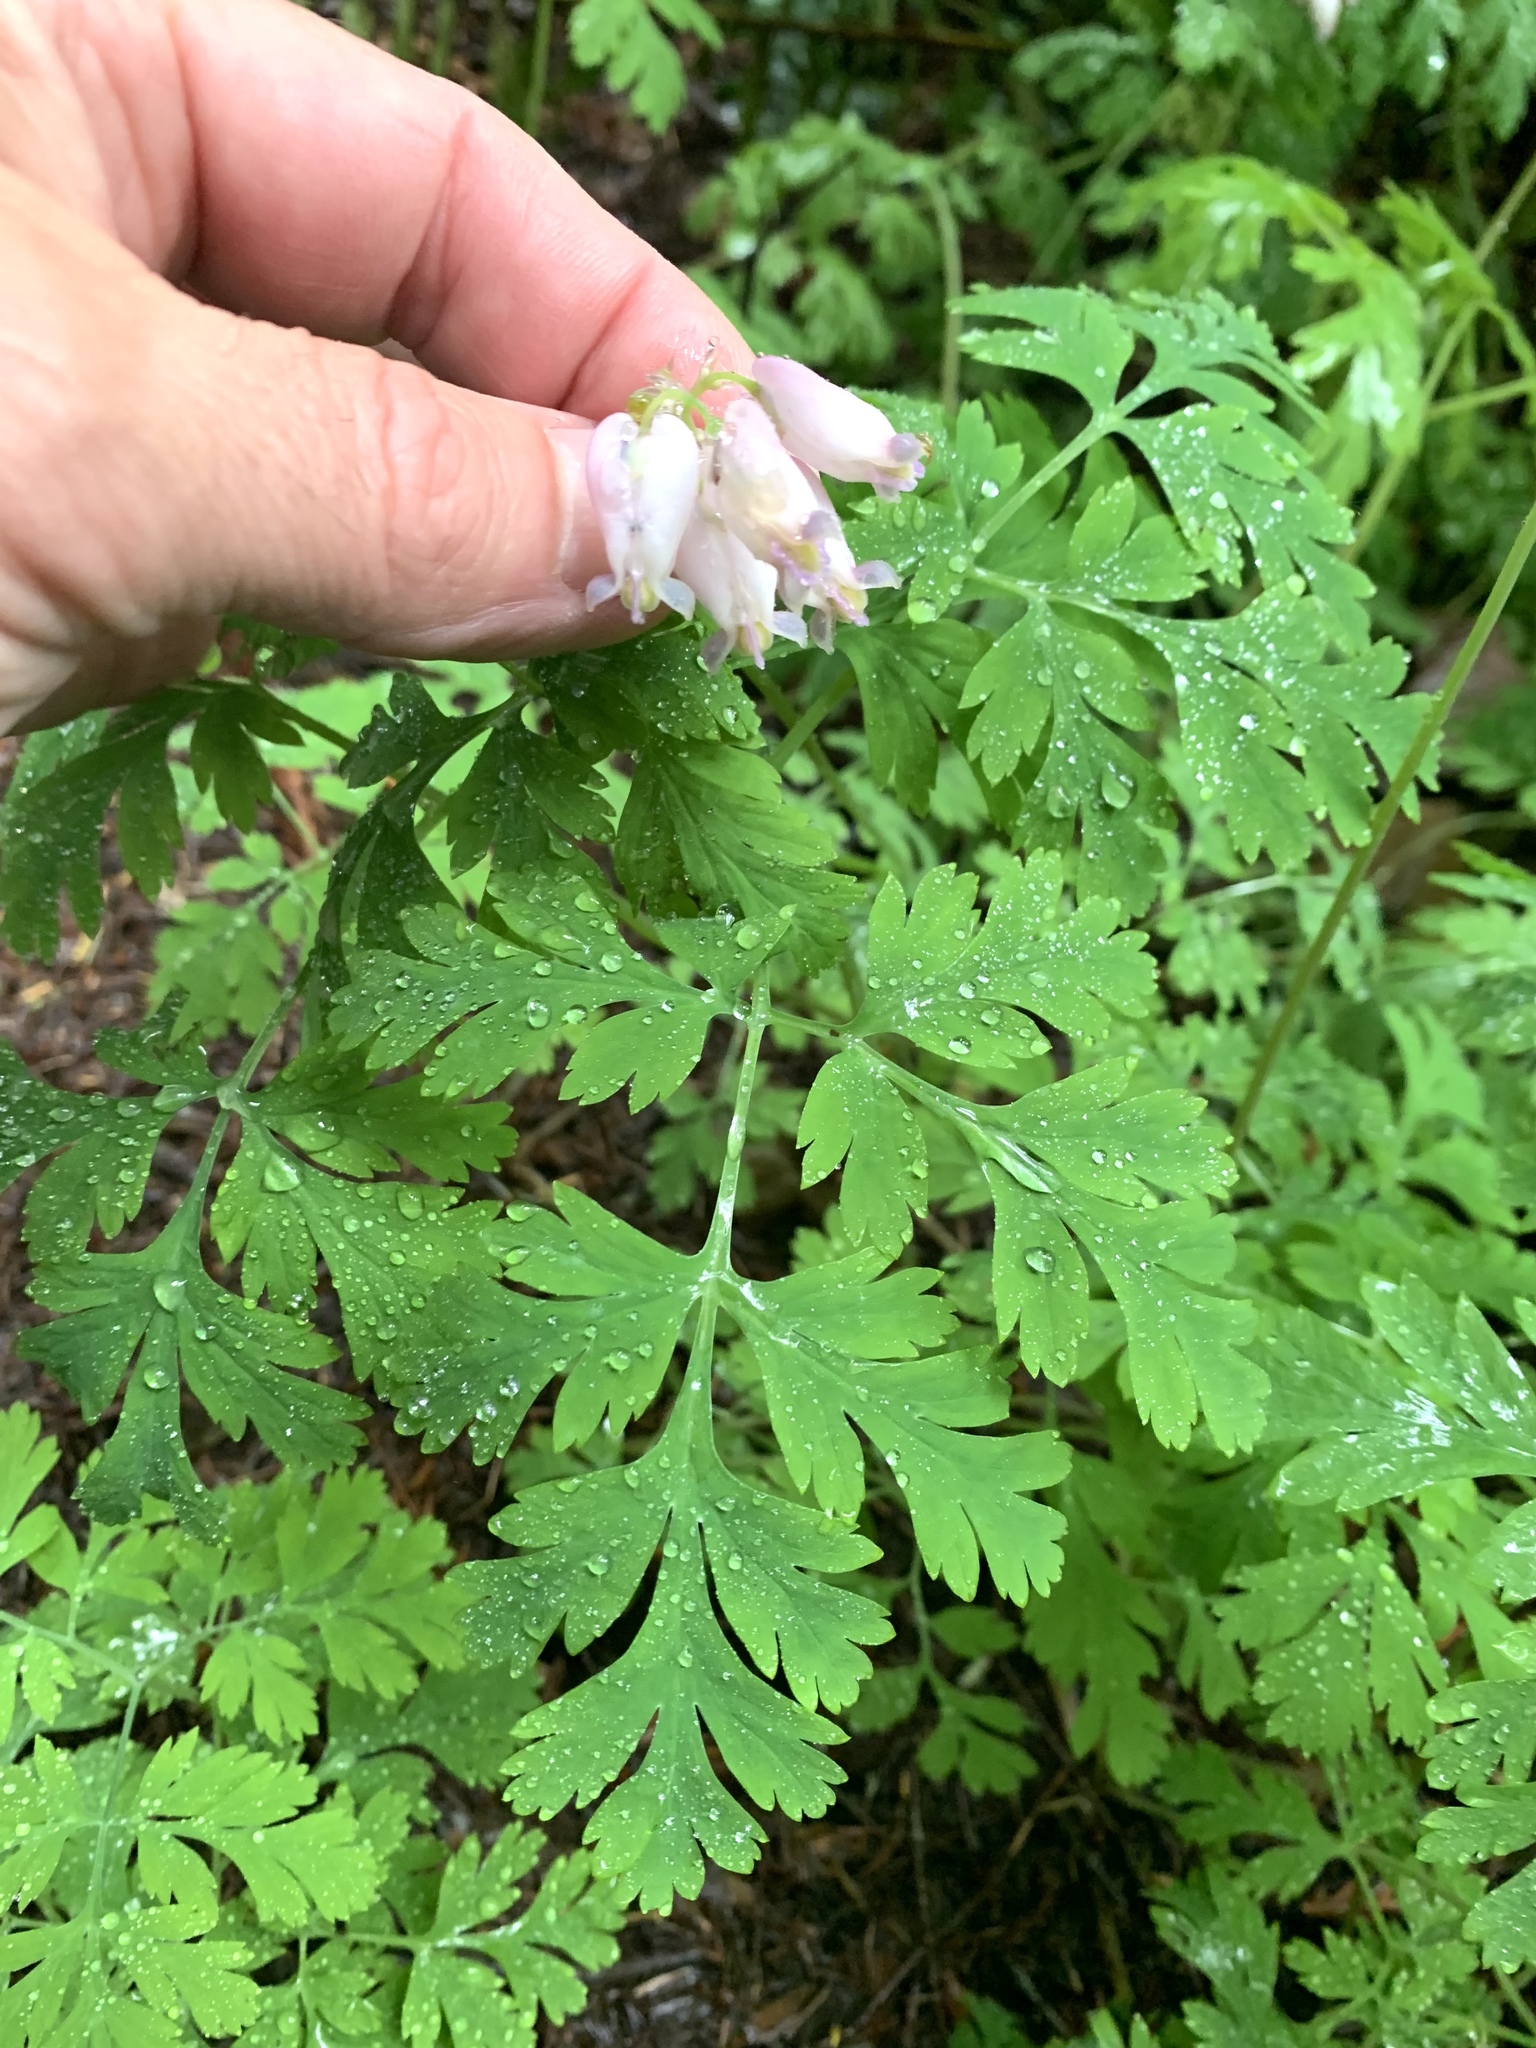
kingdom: Plantae
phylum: Tracheophyta
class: Magnoliopsida
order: Ranunculales
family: Papaveraceae
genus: Dicentra
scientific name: Dicentra formosa
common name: Bleeding-heart
